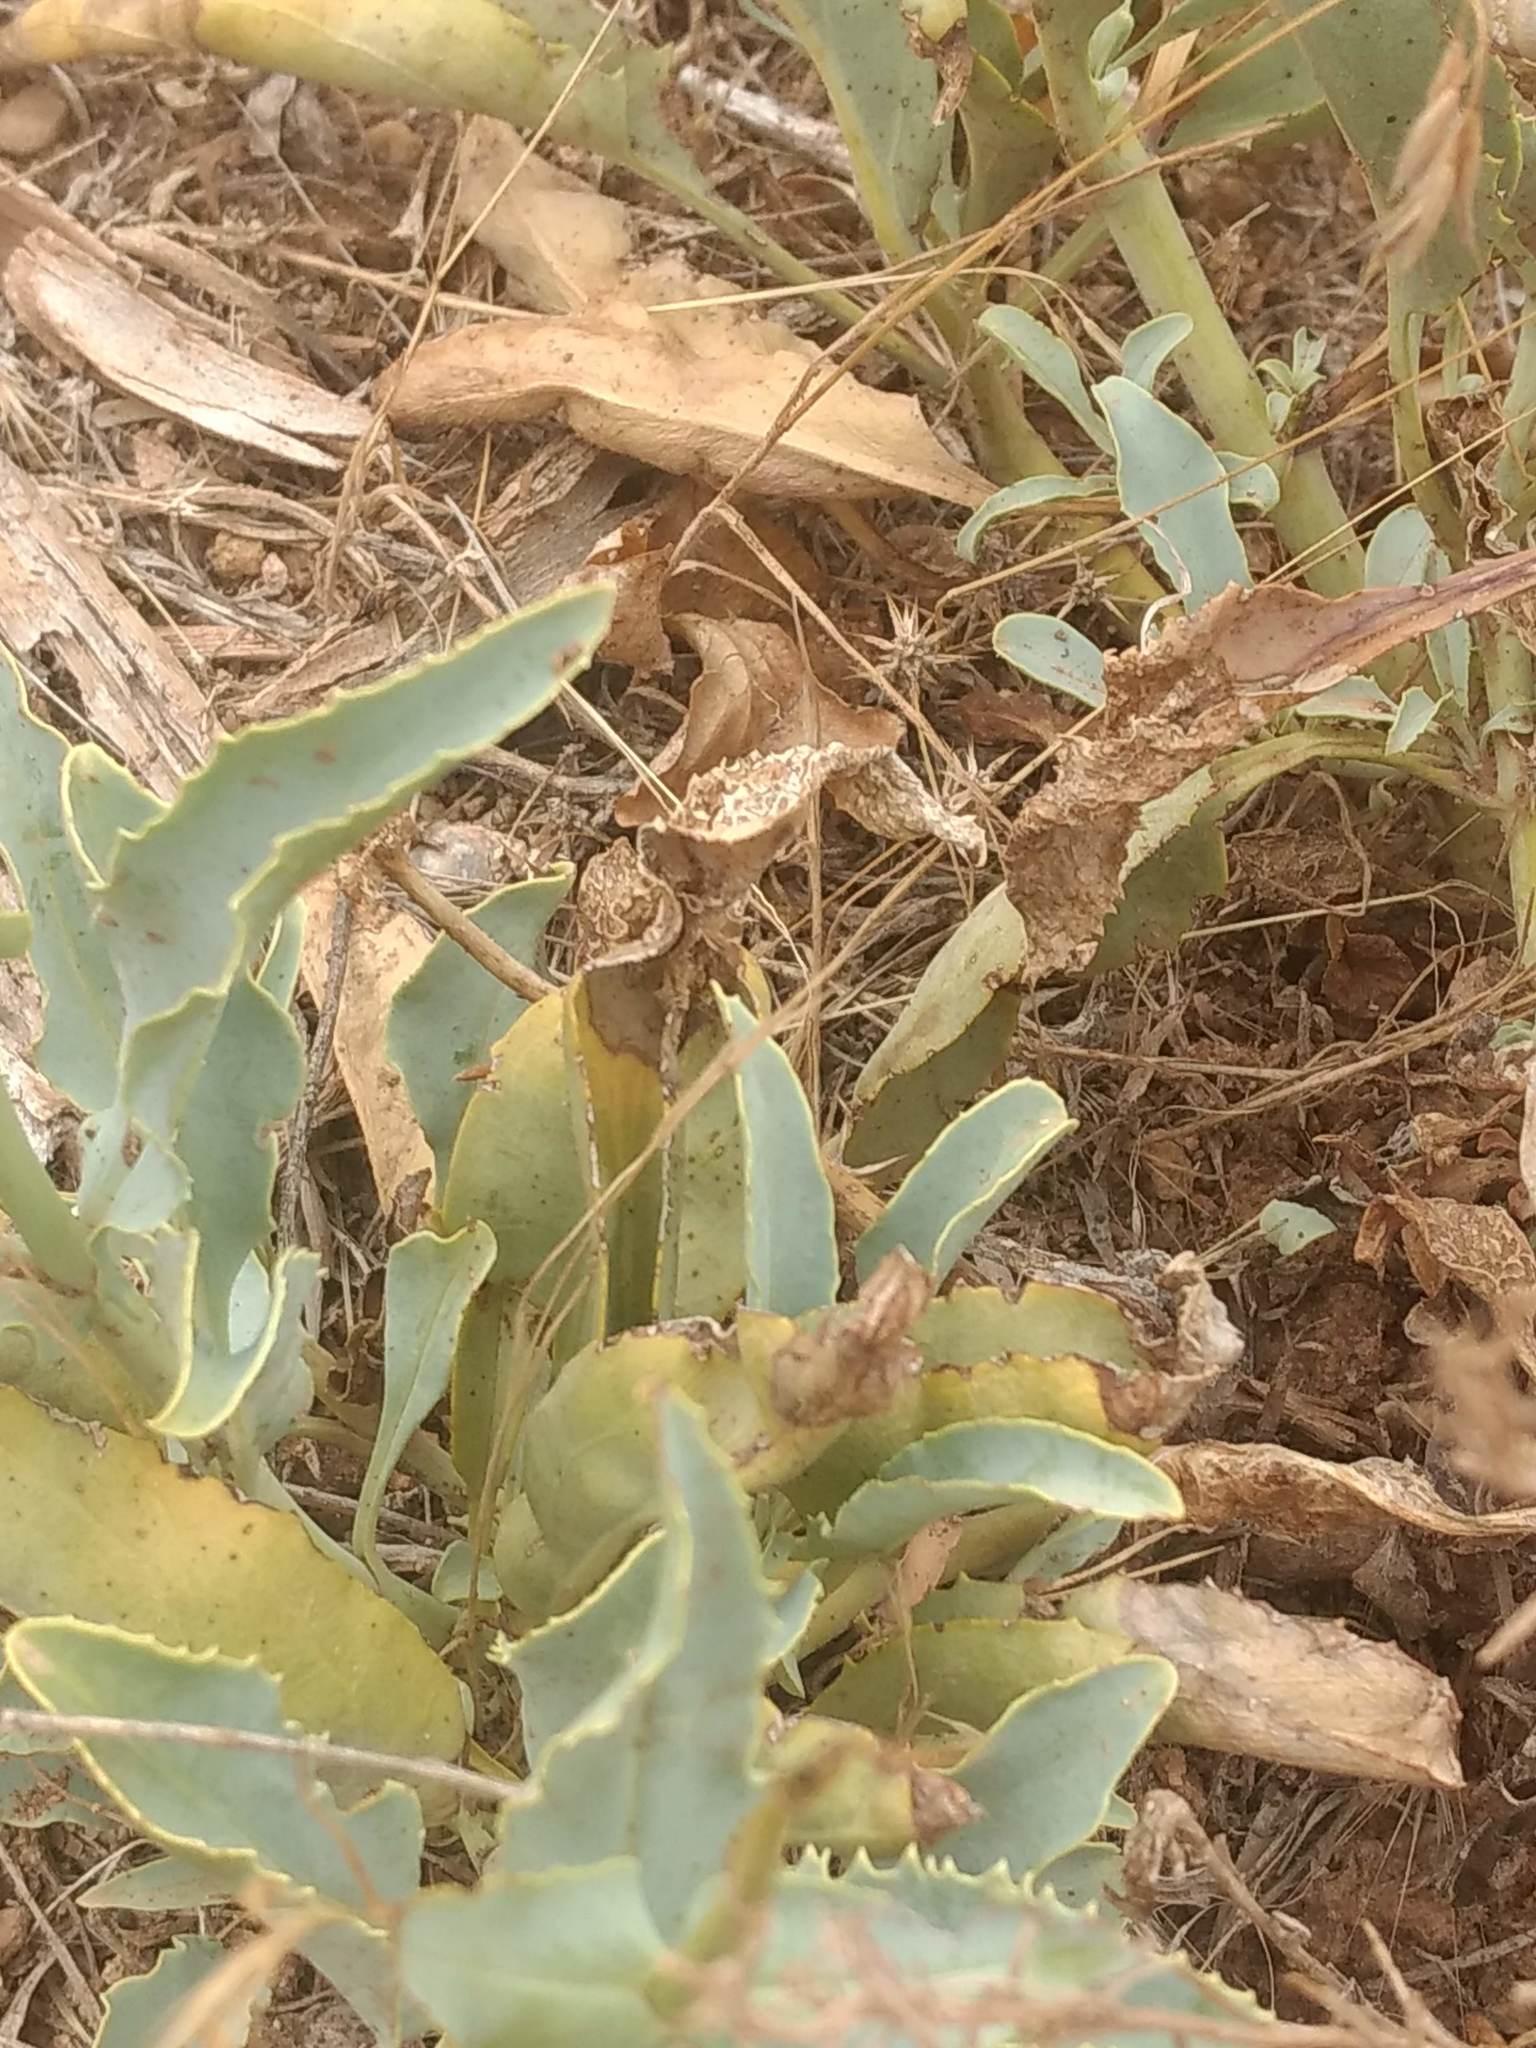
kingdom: Plantae
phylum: Tracheophyta
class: Magnoliopsida
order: Lamiales
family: Plantaginaceae
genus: Penstemon
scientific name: Penstemon palmeri
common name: Palmer penstemon
